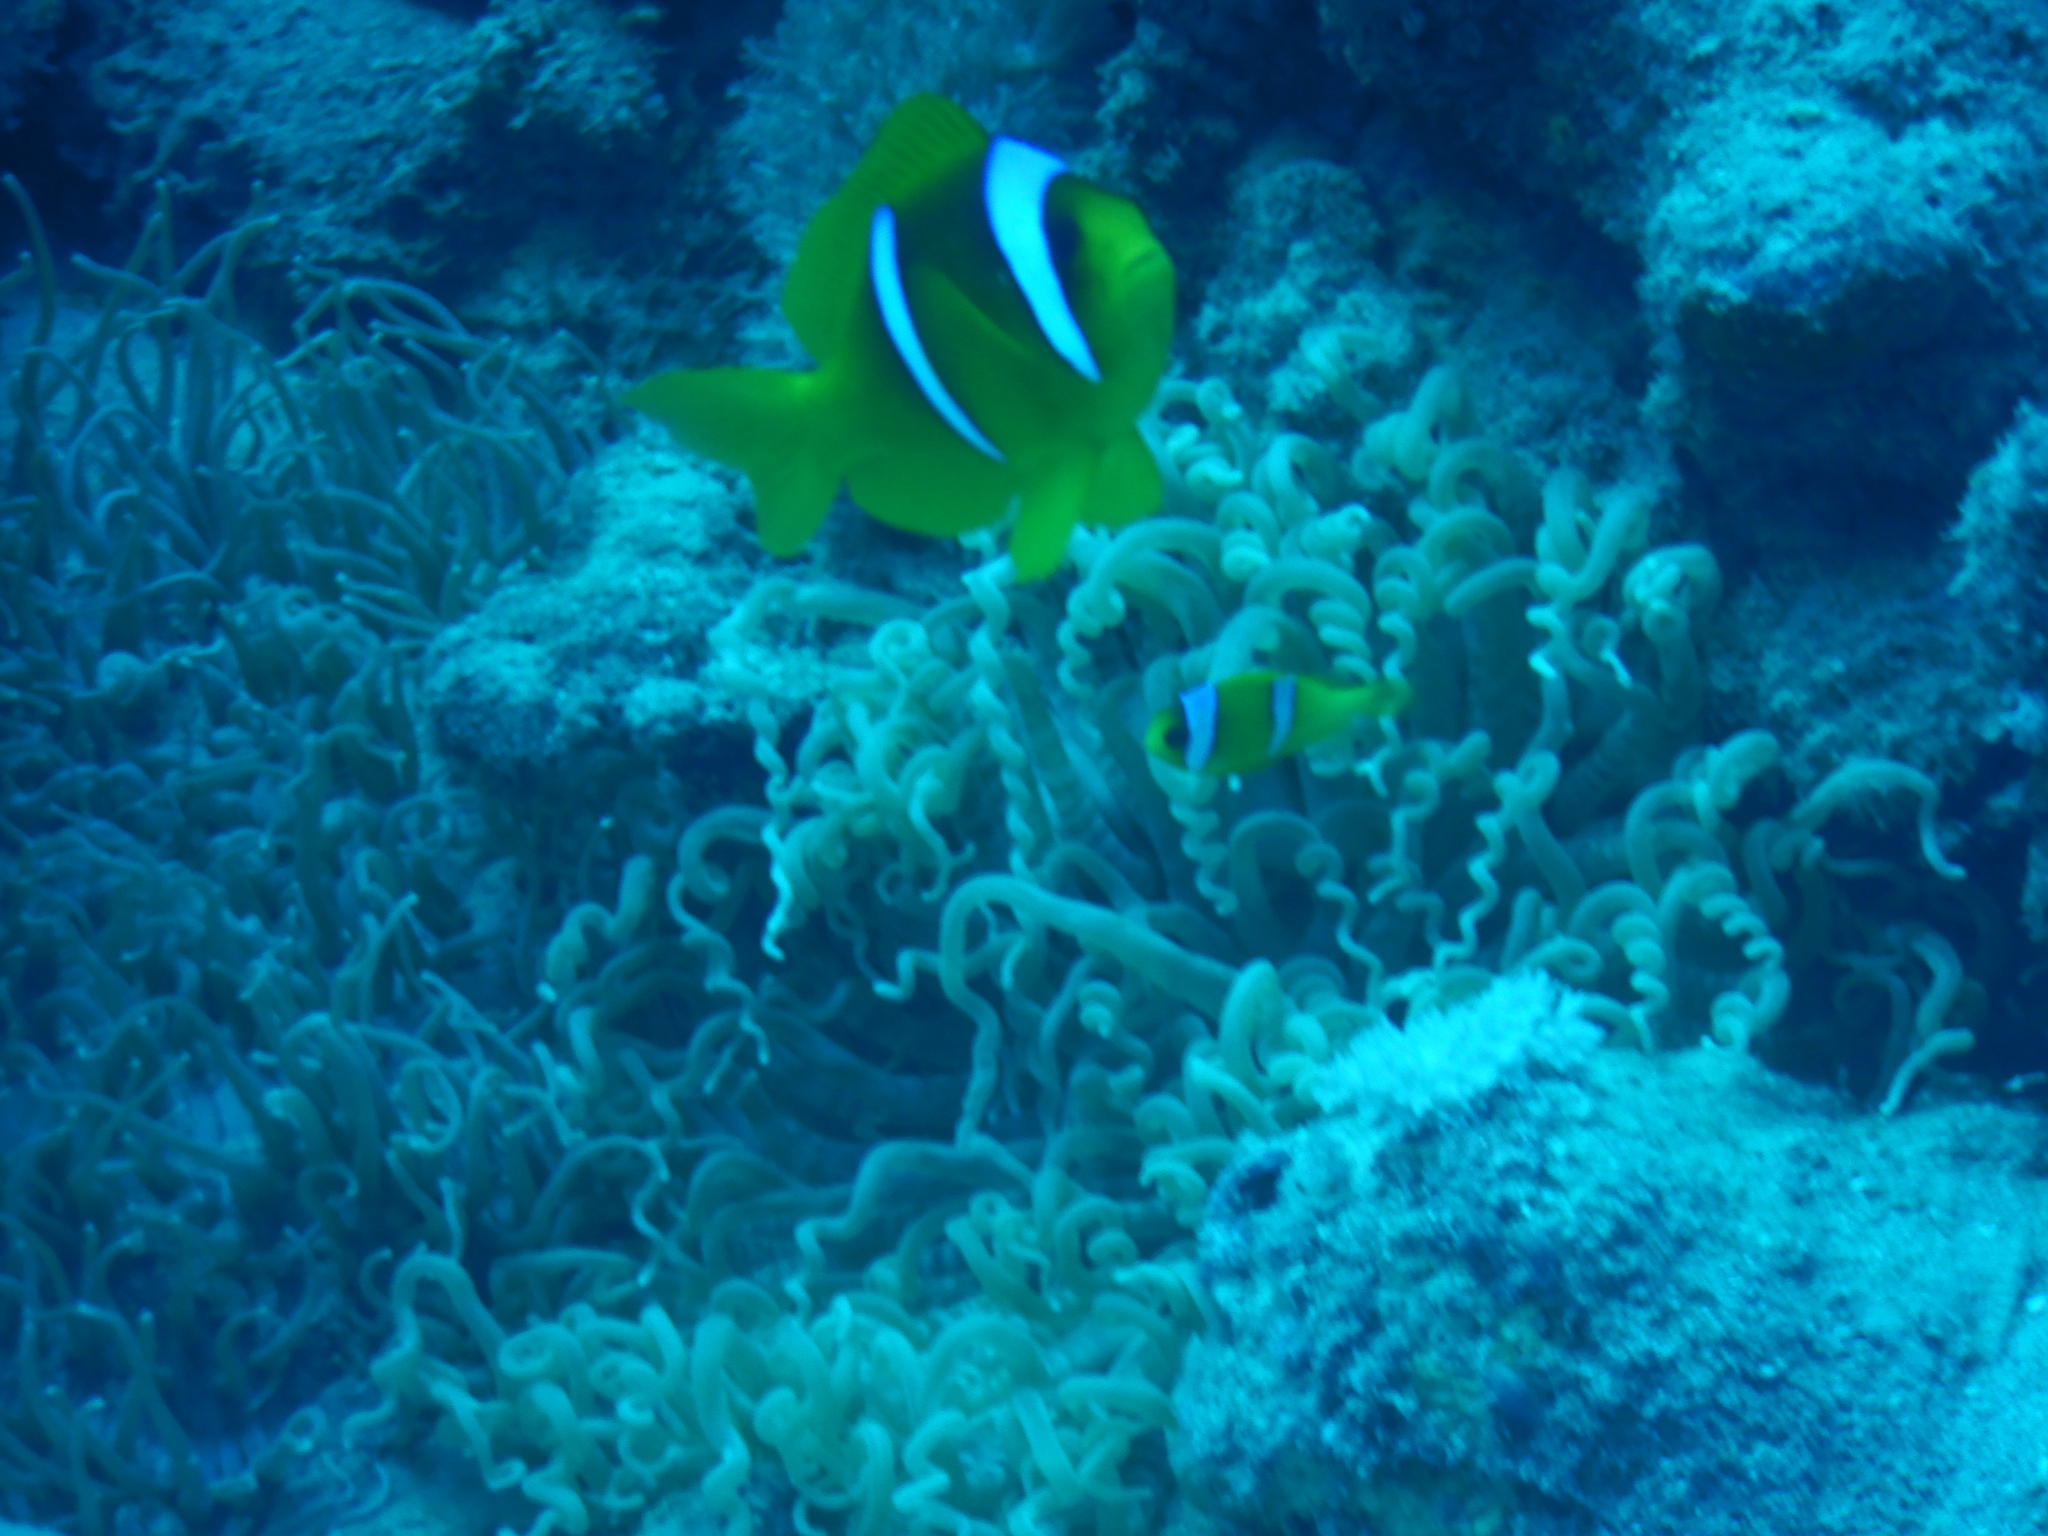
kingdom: Animalia
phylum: Chordata
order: Perciformes
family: Pomacentridae
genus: Amphiprion
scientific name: Amphiprion bicinctus
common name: Two-banded anemonefish
